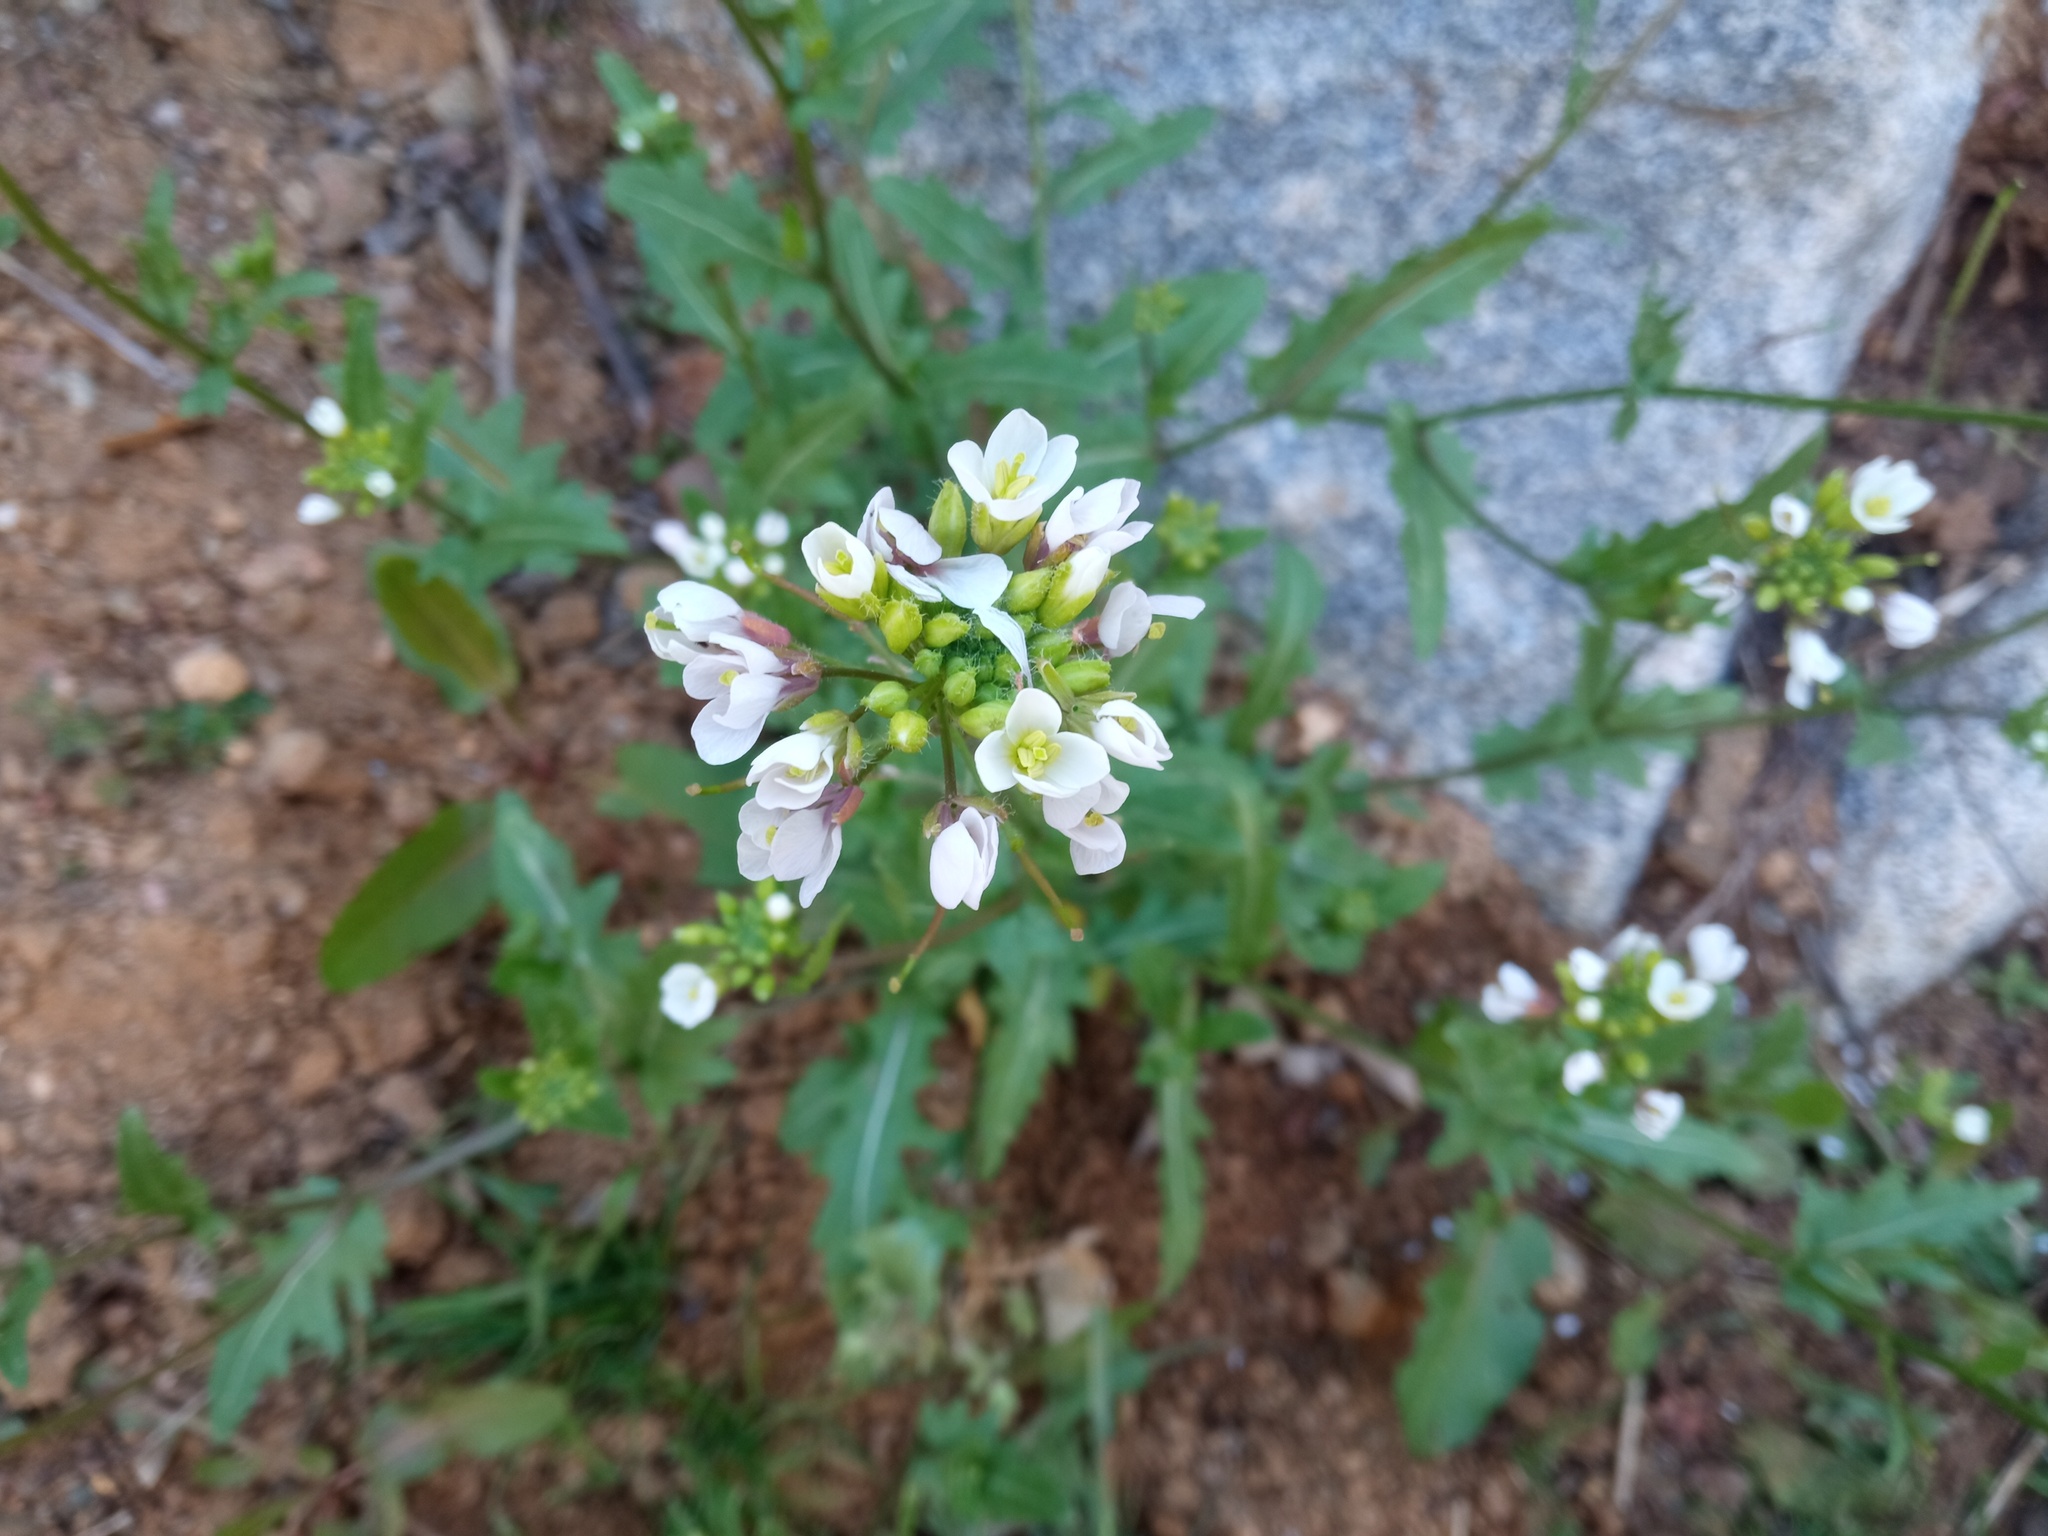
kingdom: Plantae
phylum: Tracheophyta
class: Magnoliopsida
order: Brassicales
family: Brassicaceae
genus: Diplotaxis
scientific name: Diplotaxis erucoides
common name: White rocket
